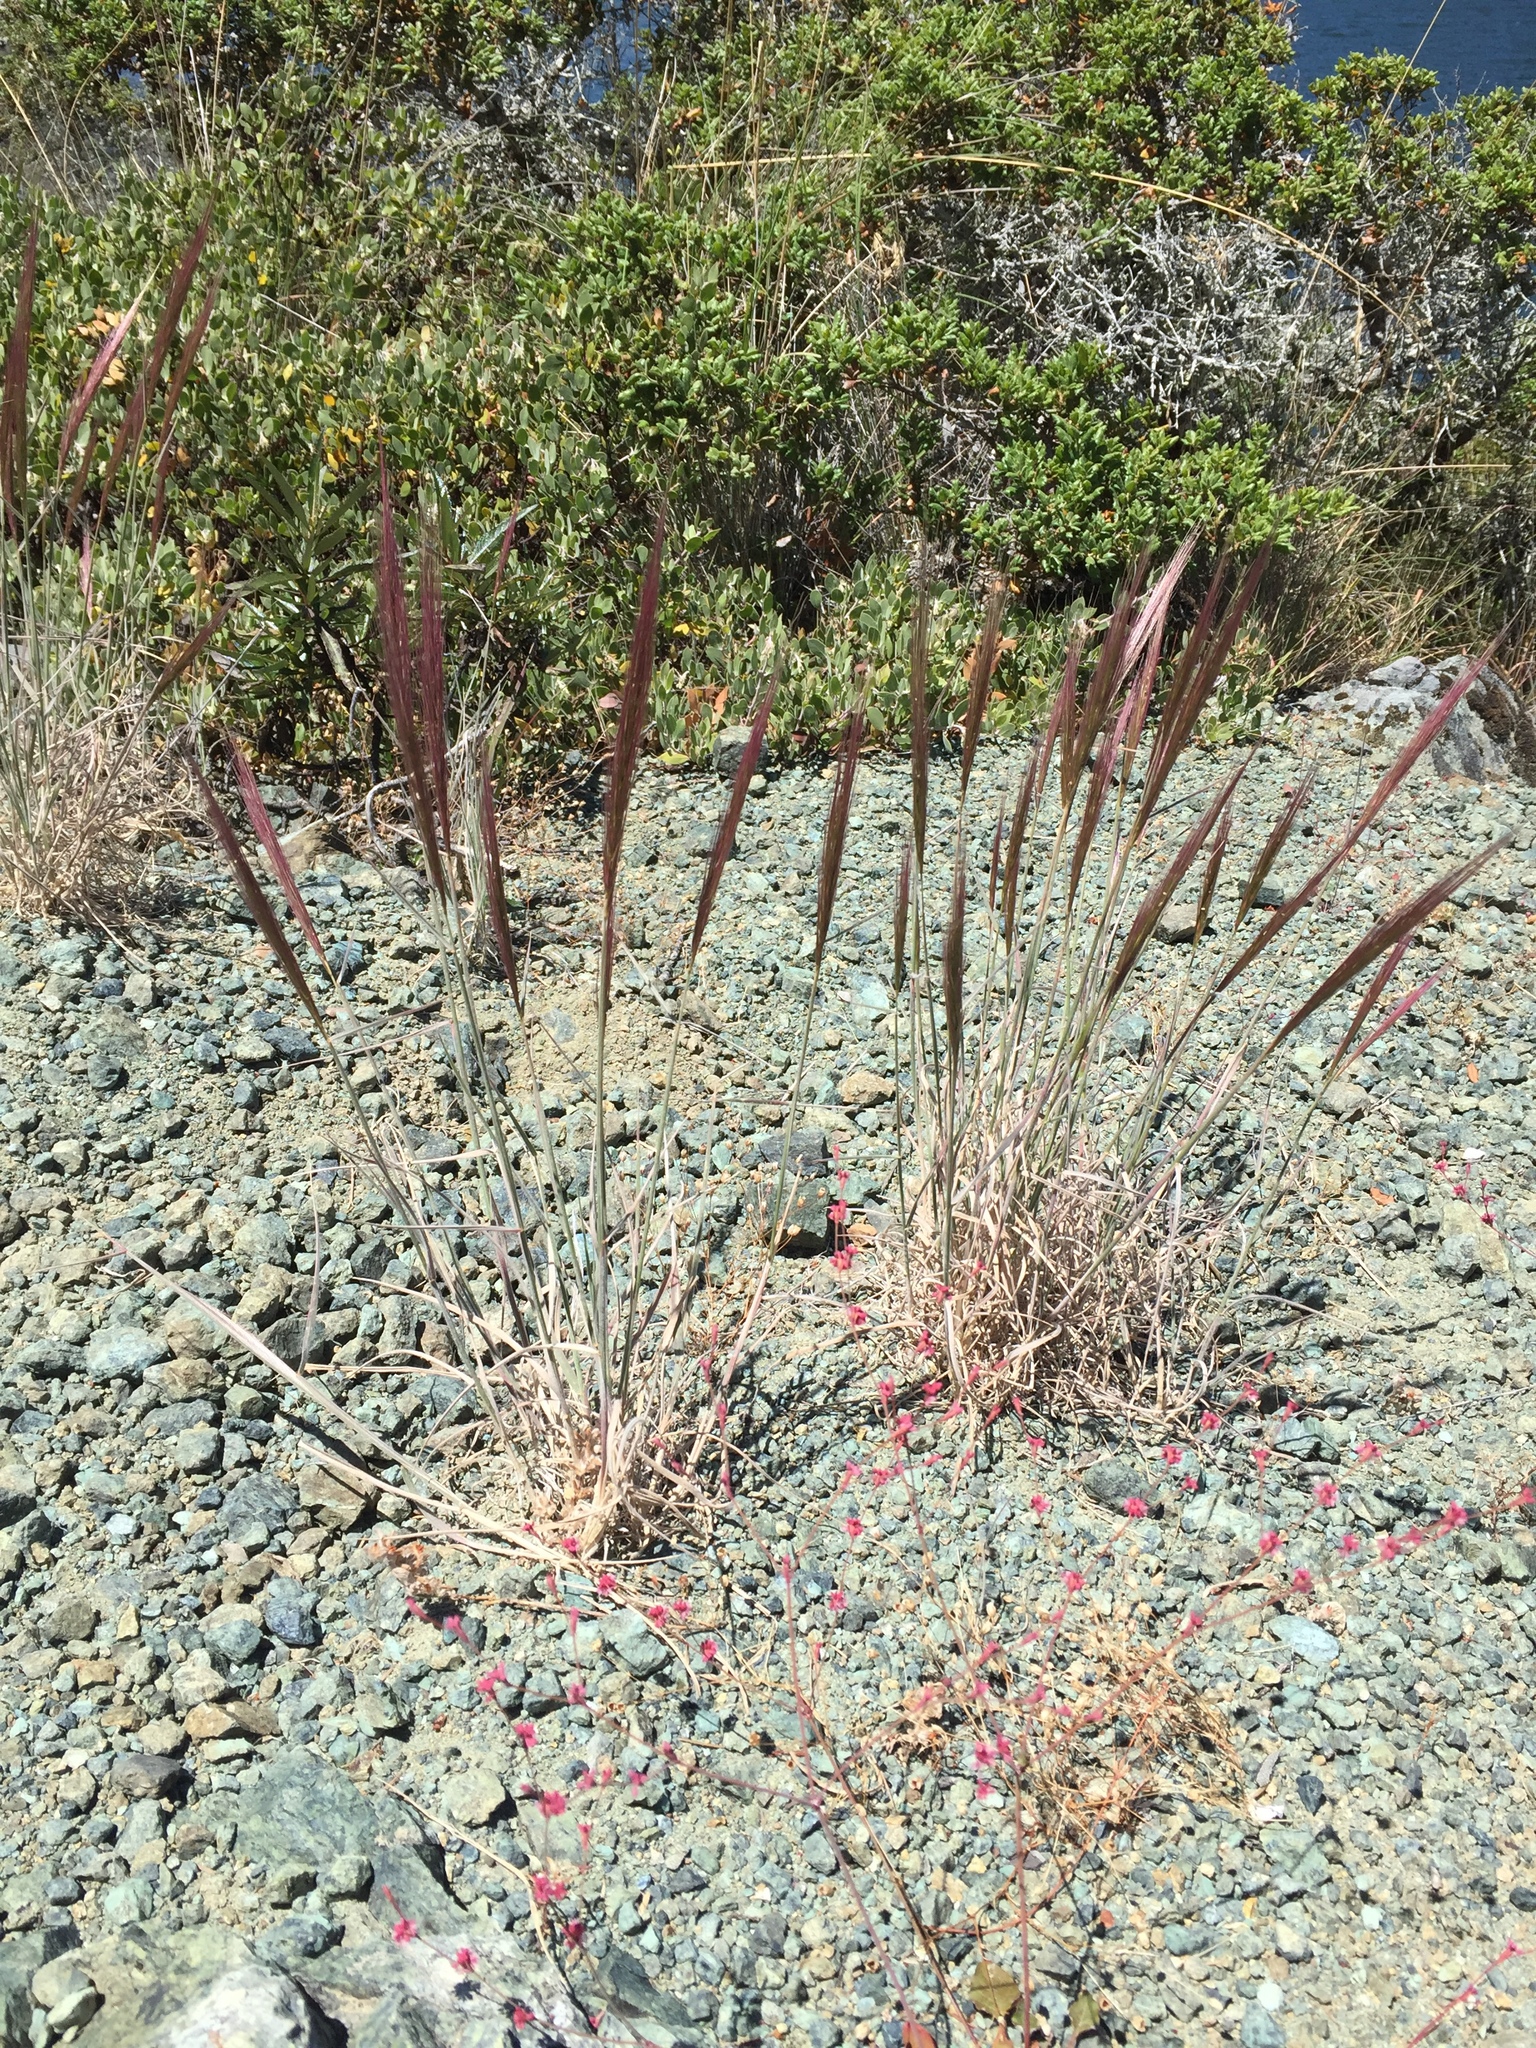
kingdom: Plantae
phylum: Tracheophyta
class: Liliopsida
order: Poales
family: Poaceae
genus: Elymus
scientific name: Elymus multisetus
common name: Big squirreltail
